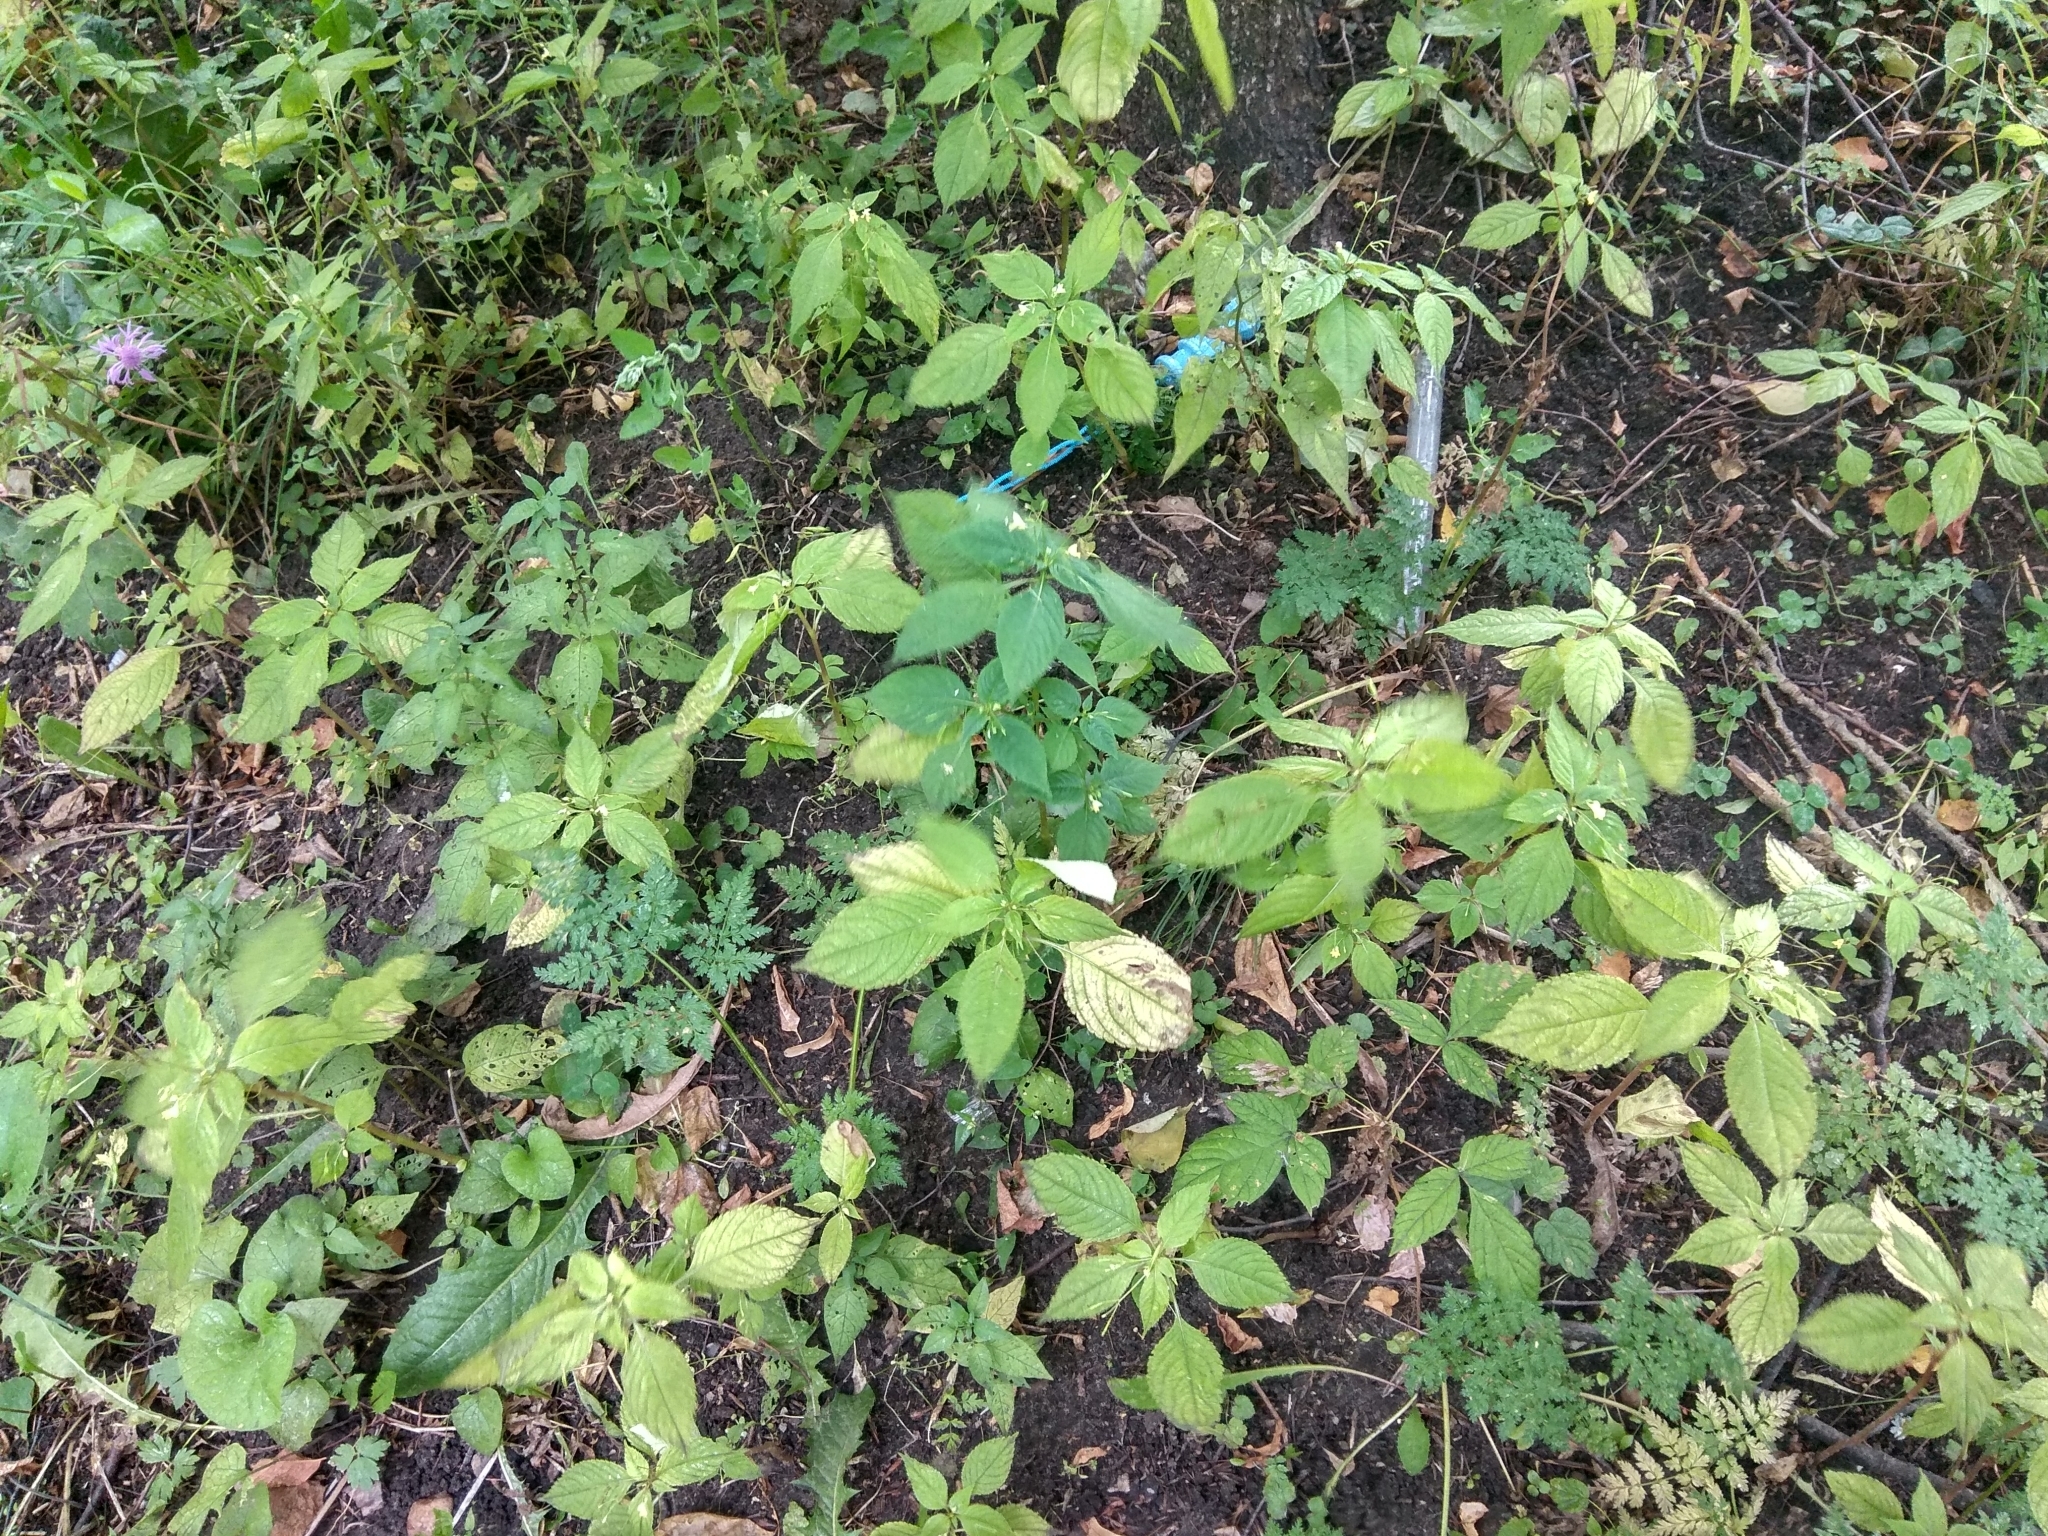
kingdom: Plantae
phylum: Tracheophyta
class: Magnoliopsida
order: Ericales
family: Balsaminaceae
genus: Impatiens
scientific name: Impatiens parviflora
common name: Small balsam
